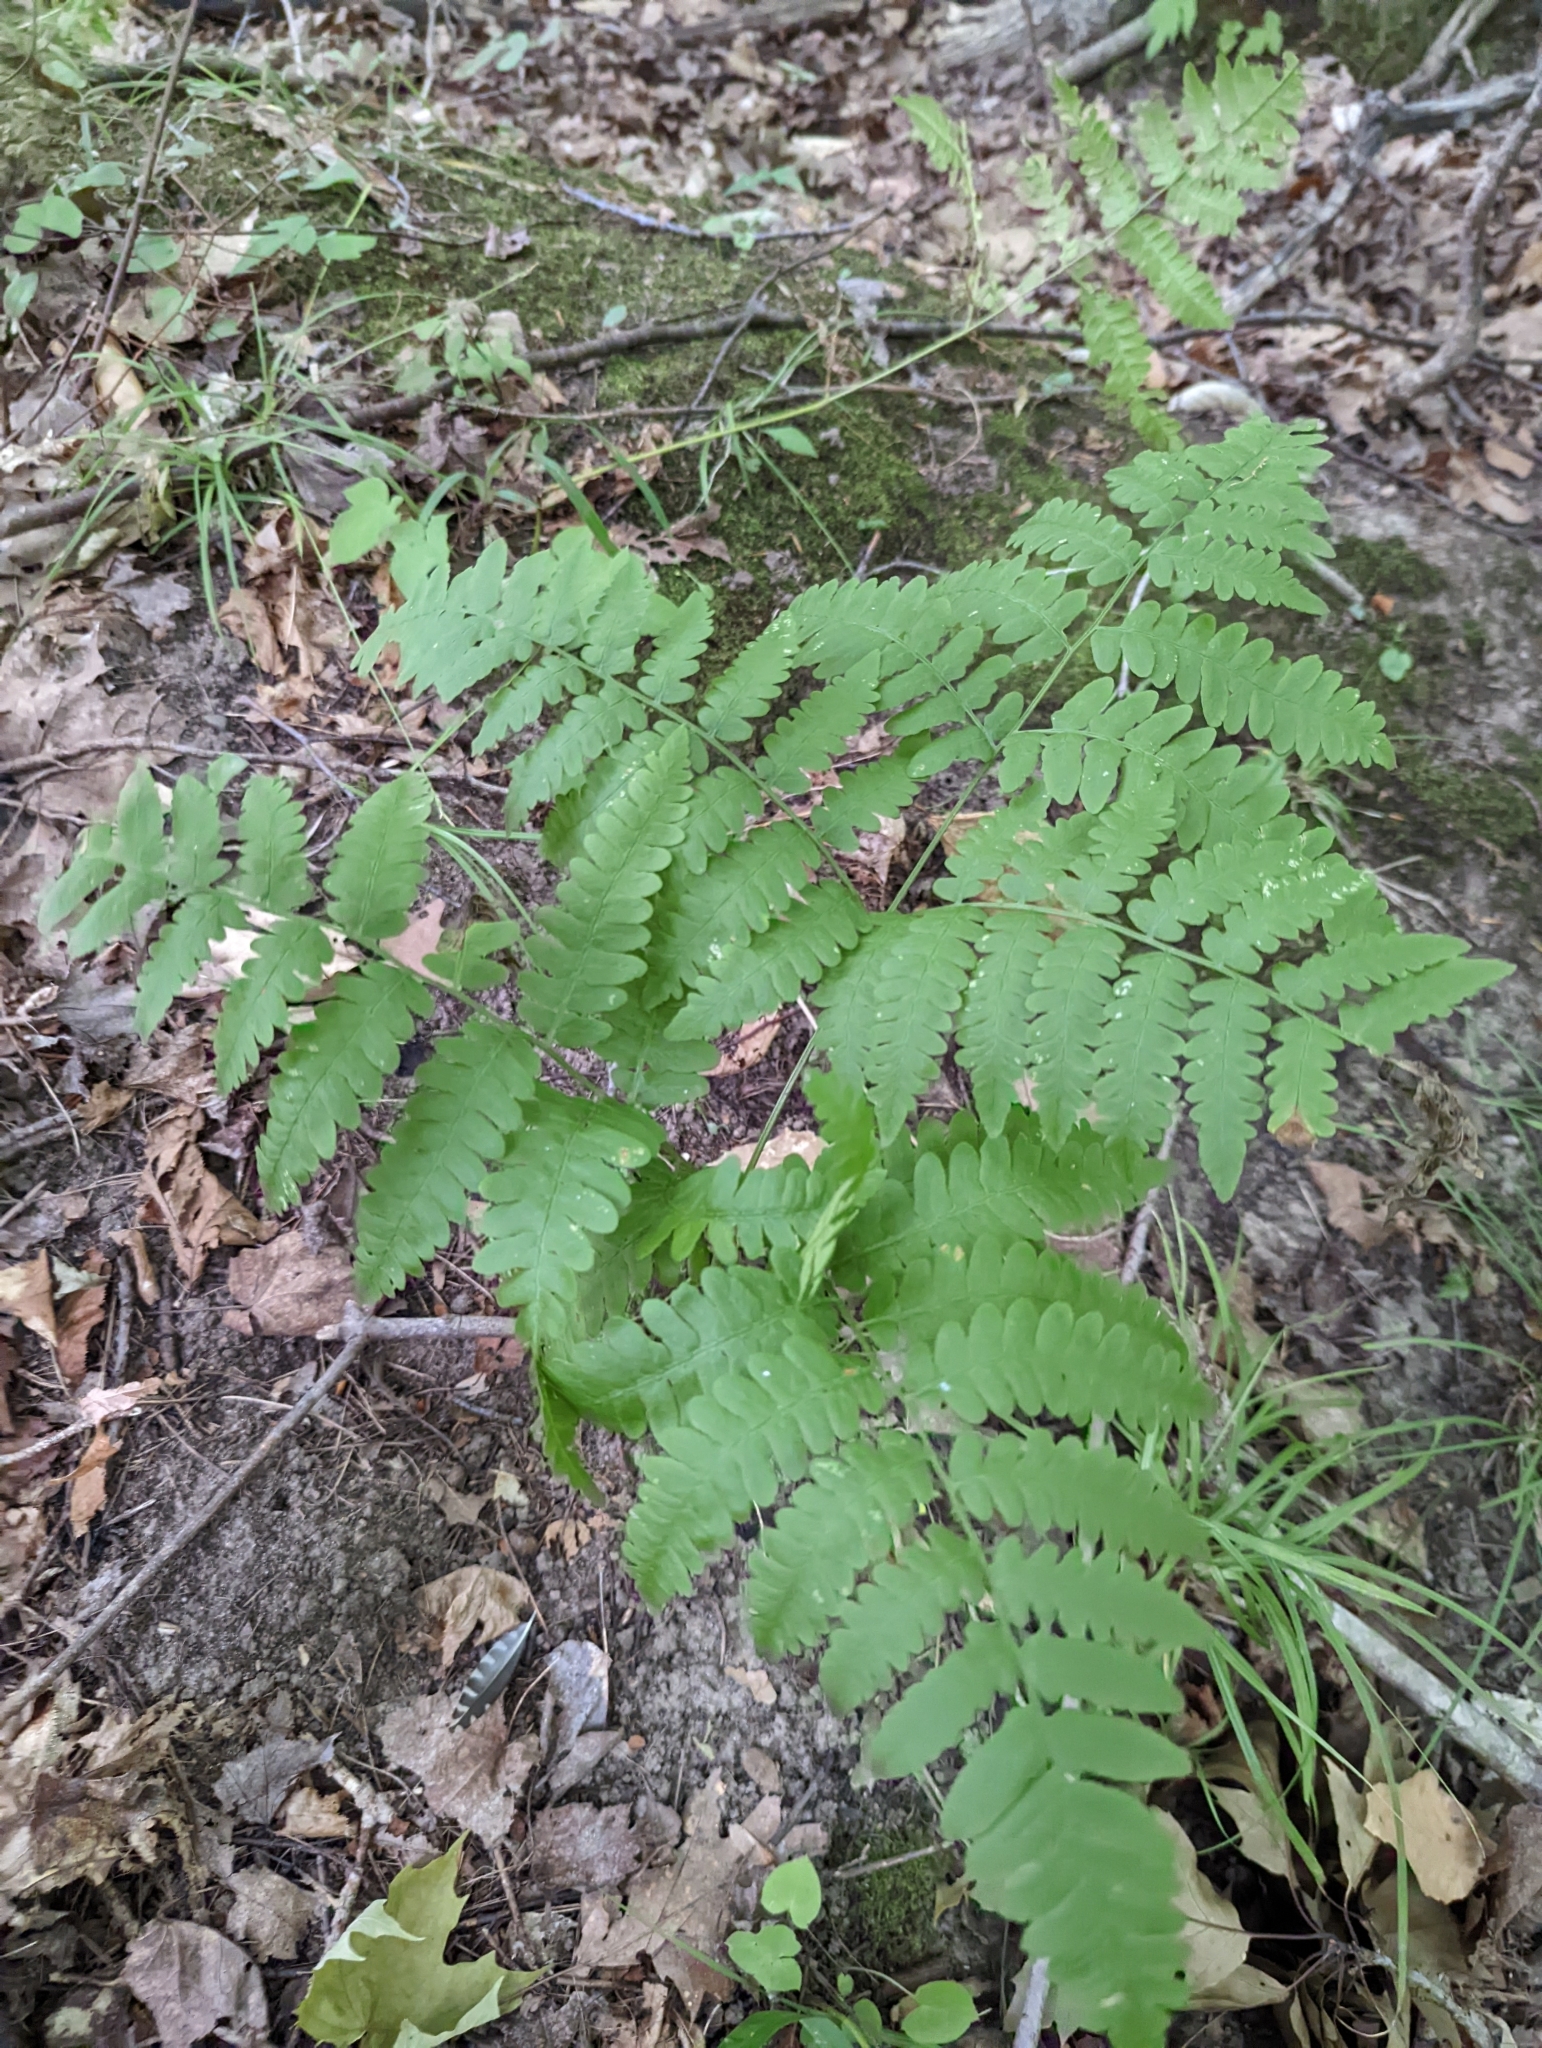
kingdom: Plantae
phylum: Tracheophyta
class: Polypodiopsida
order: Polypodiales
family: Dennstaedtiaceae
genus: Pteridium
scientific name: Pteridium aquilinum
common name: Bracken
